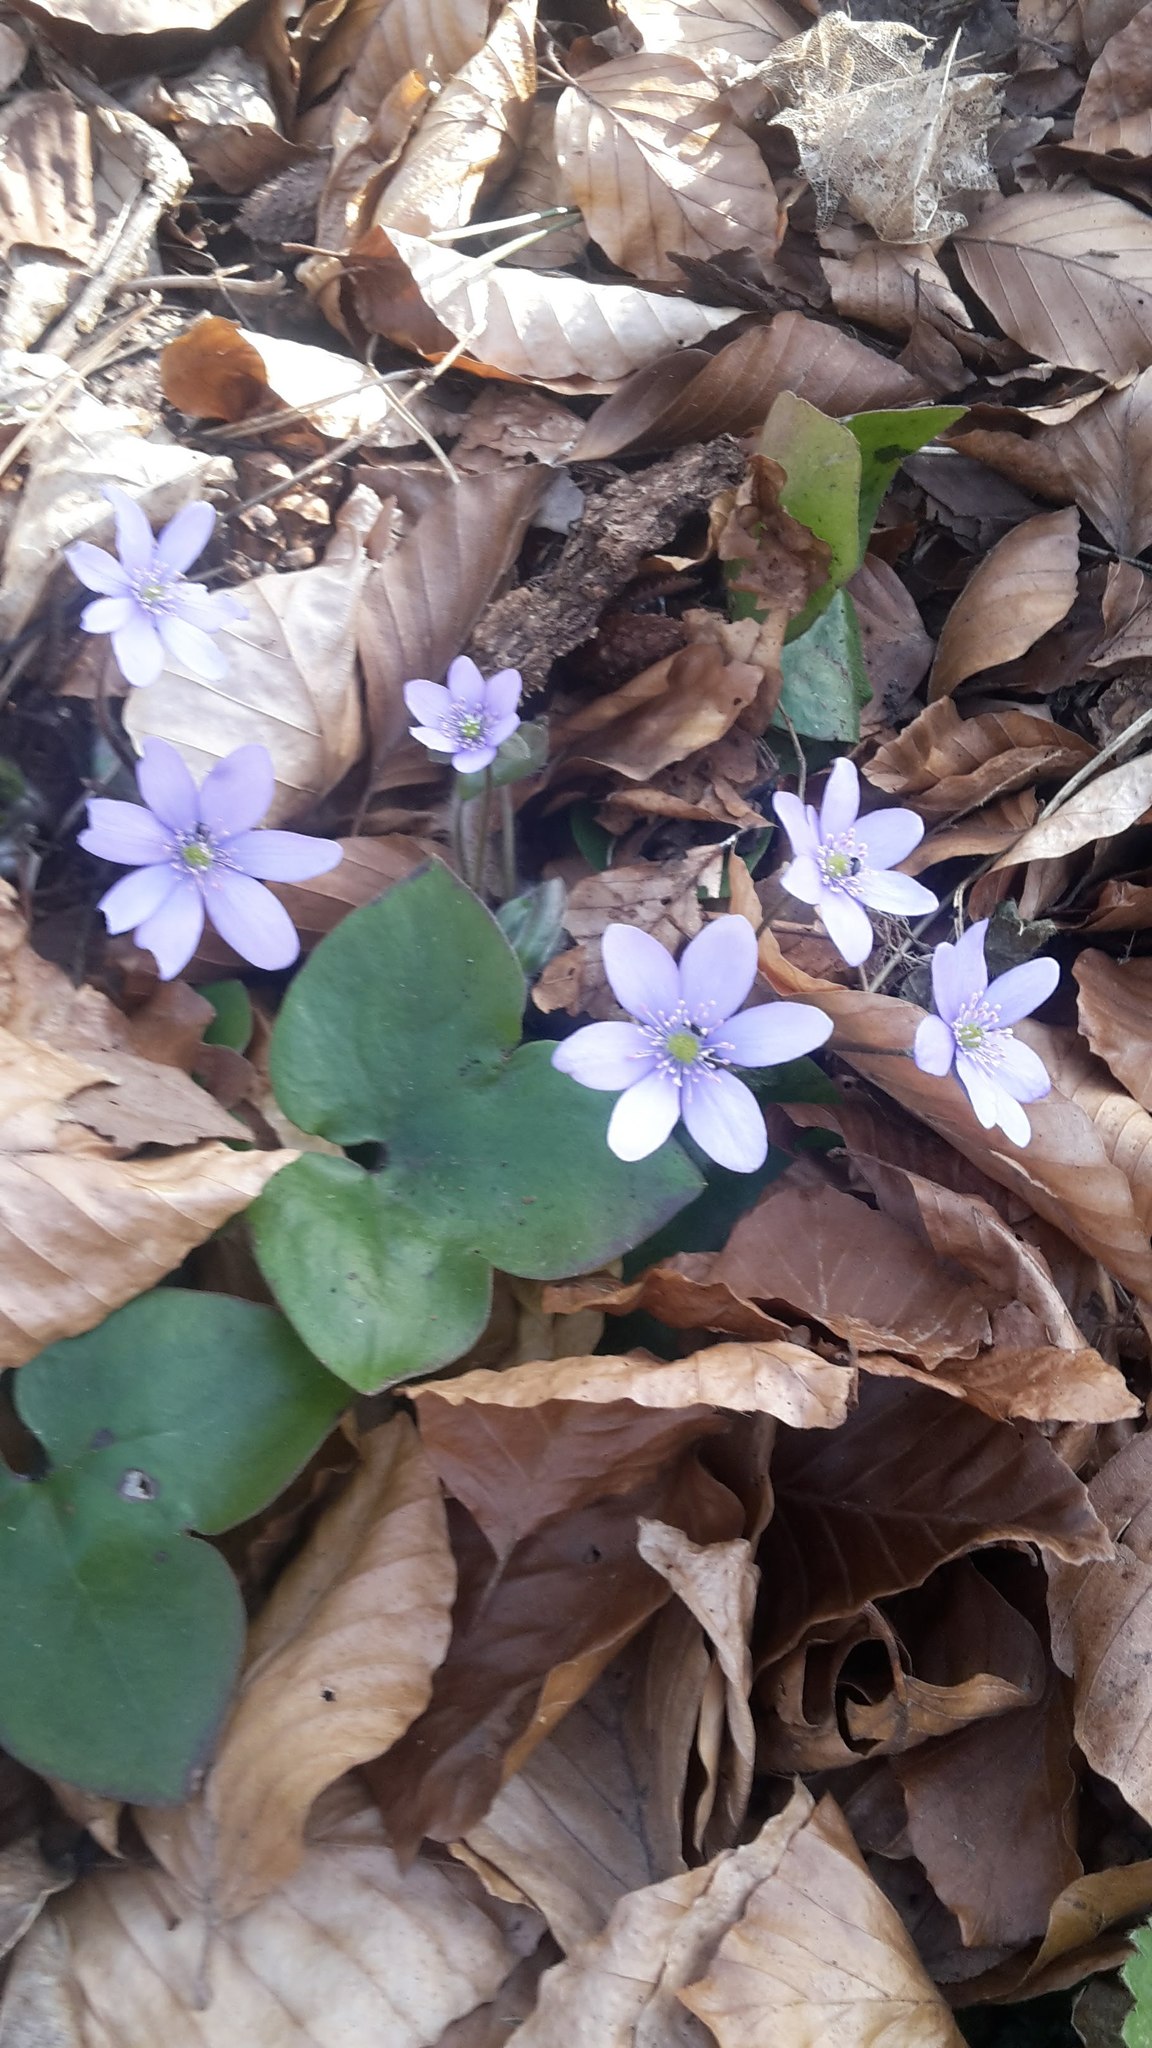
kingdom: Plantae
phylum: Tracheophyta
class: Magnoliopsida
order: Ranunculales
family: Ranunculaceae
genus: Hepatica
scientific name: Hepatica nobilis
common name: Liverleaf
